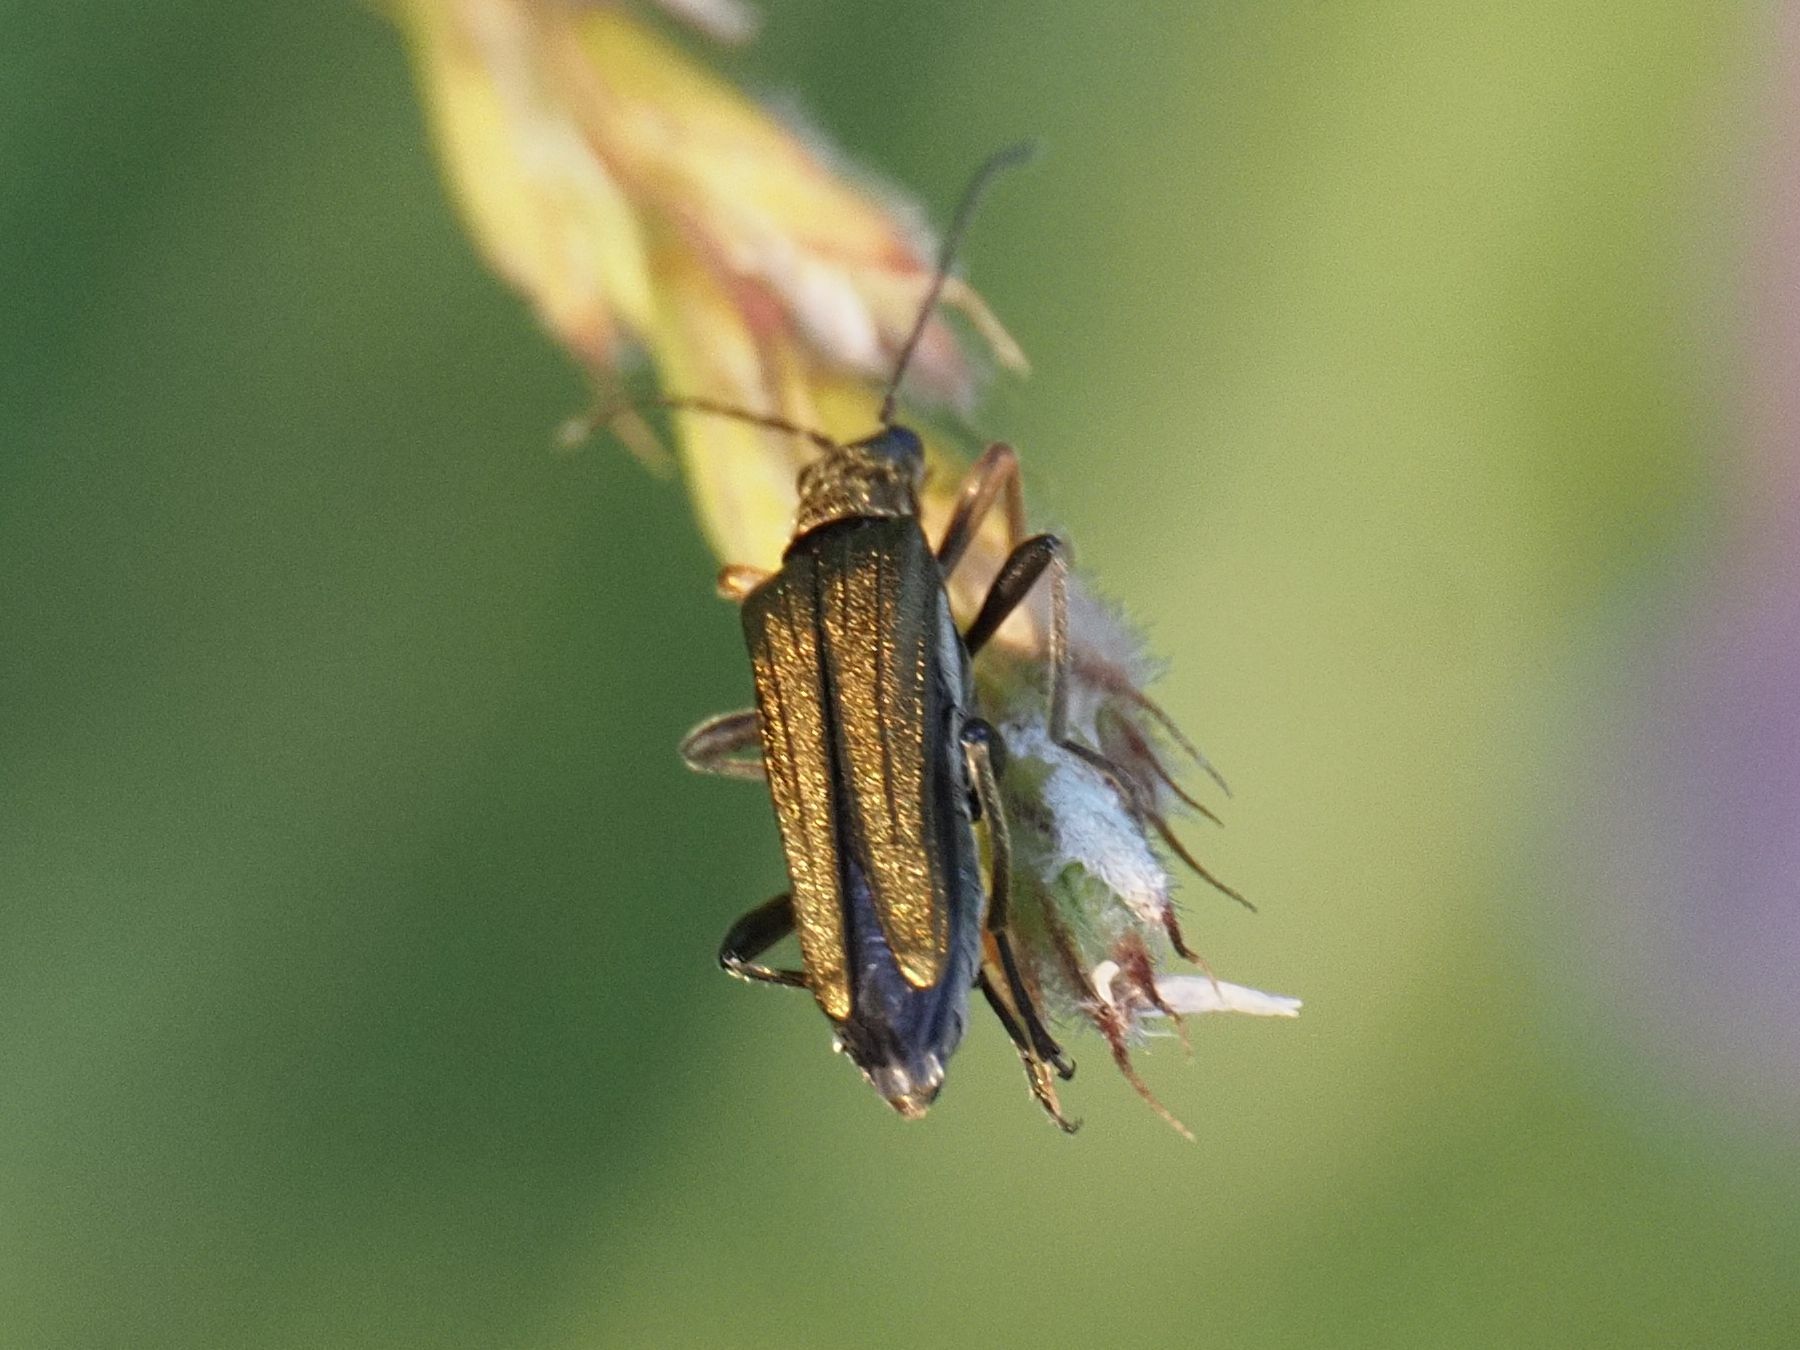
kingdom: Animalia
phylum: Arthropoda
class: Insecta
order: Coleoptera
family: Oedemeridae
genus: Oedemera
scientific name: Oedemera flavipes
